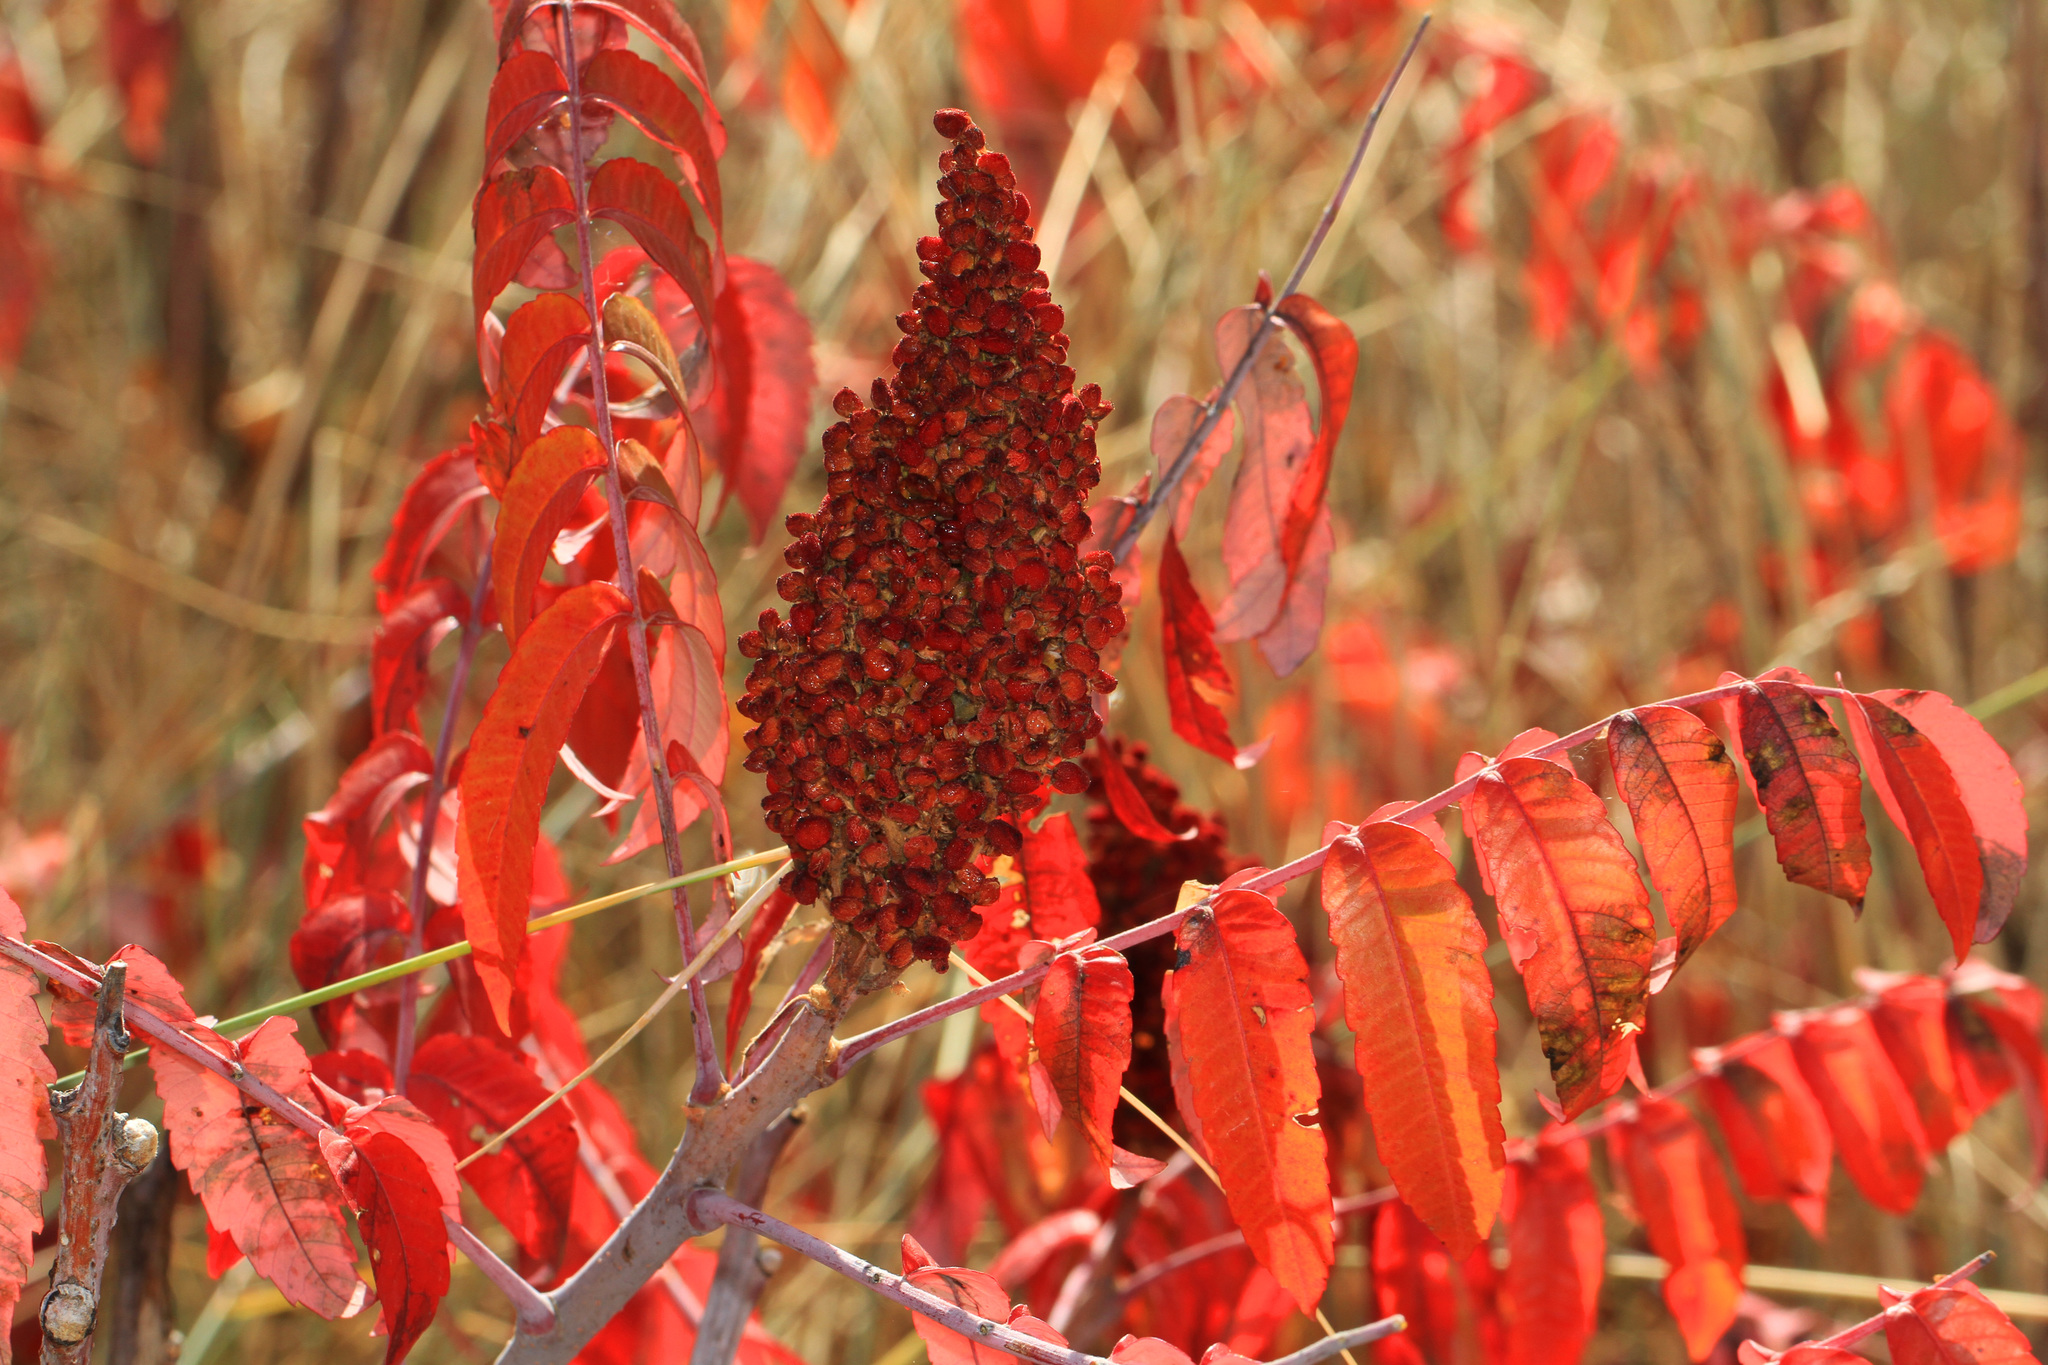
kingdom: Plantae
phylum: Tracheophyta
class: Magnoliopsida
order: Sapindales
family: Anacardiaceae
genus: Rhus
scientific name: Rhus glabra
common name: Scarlet sumac
